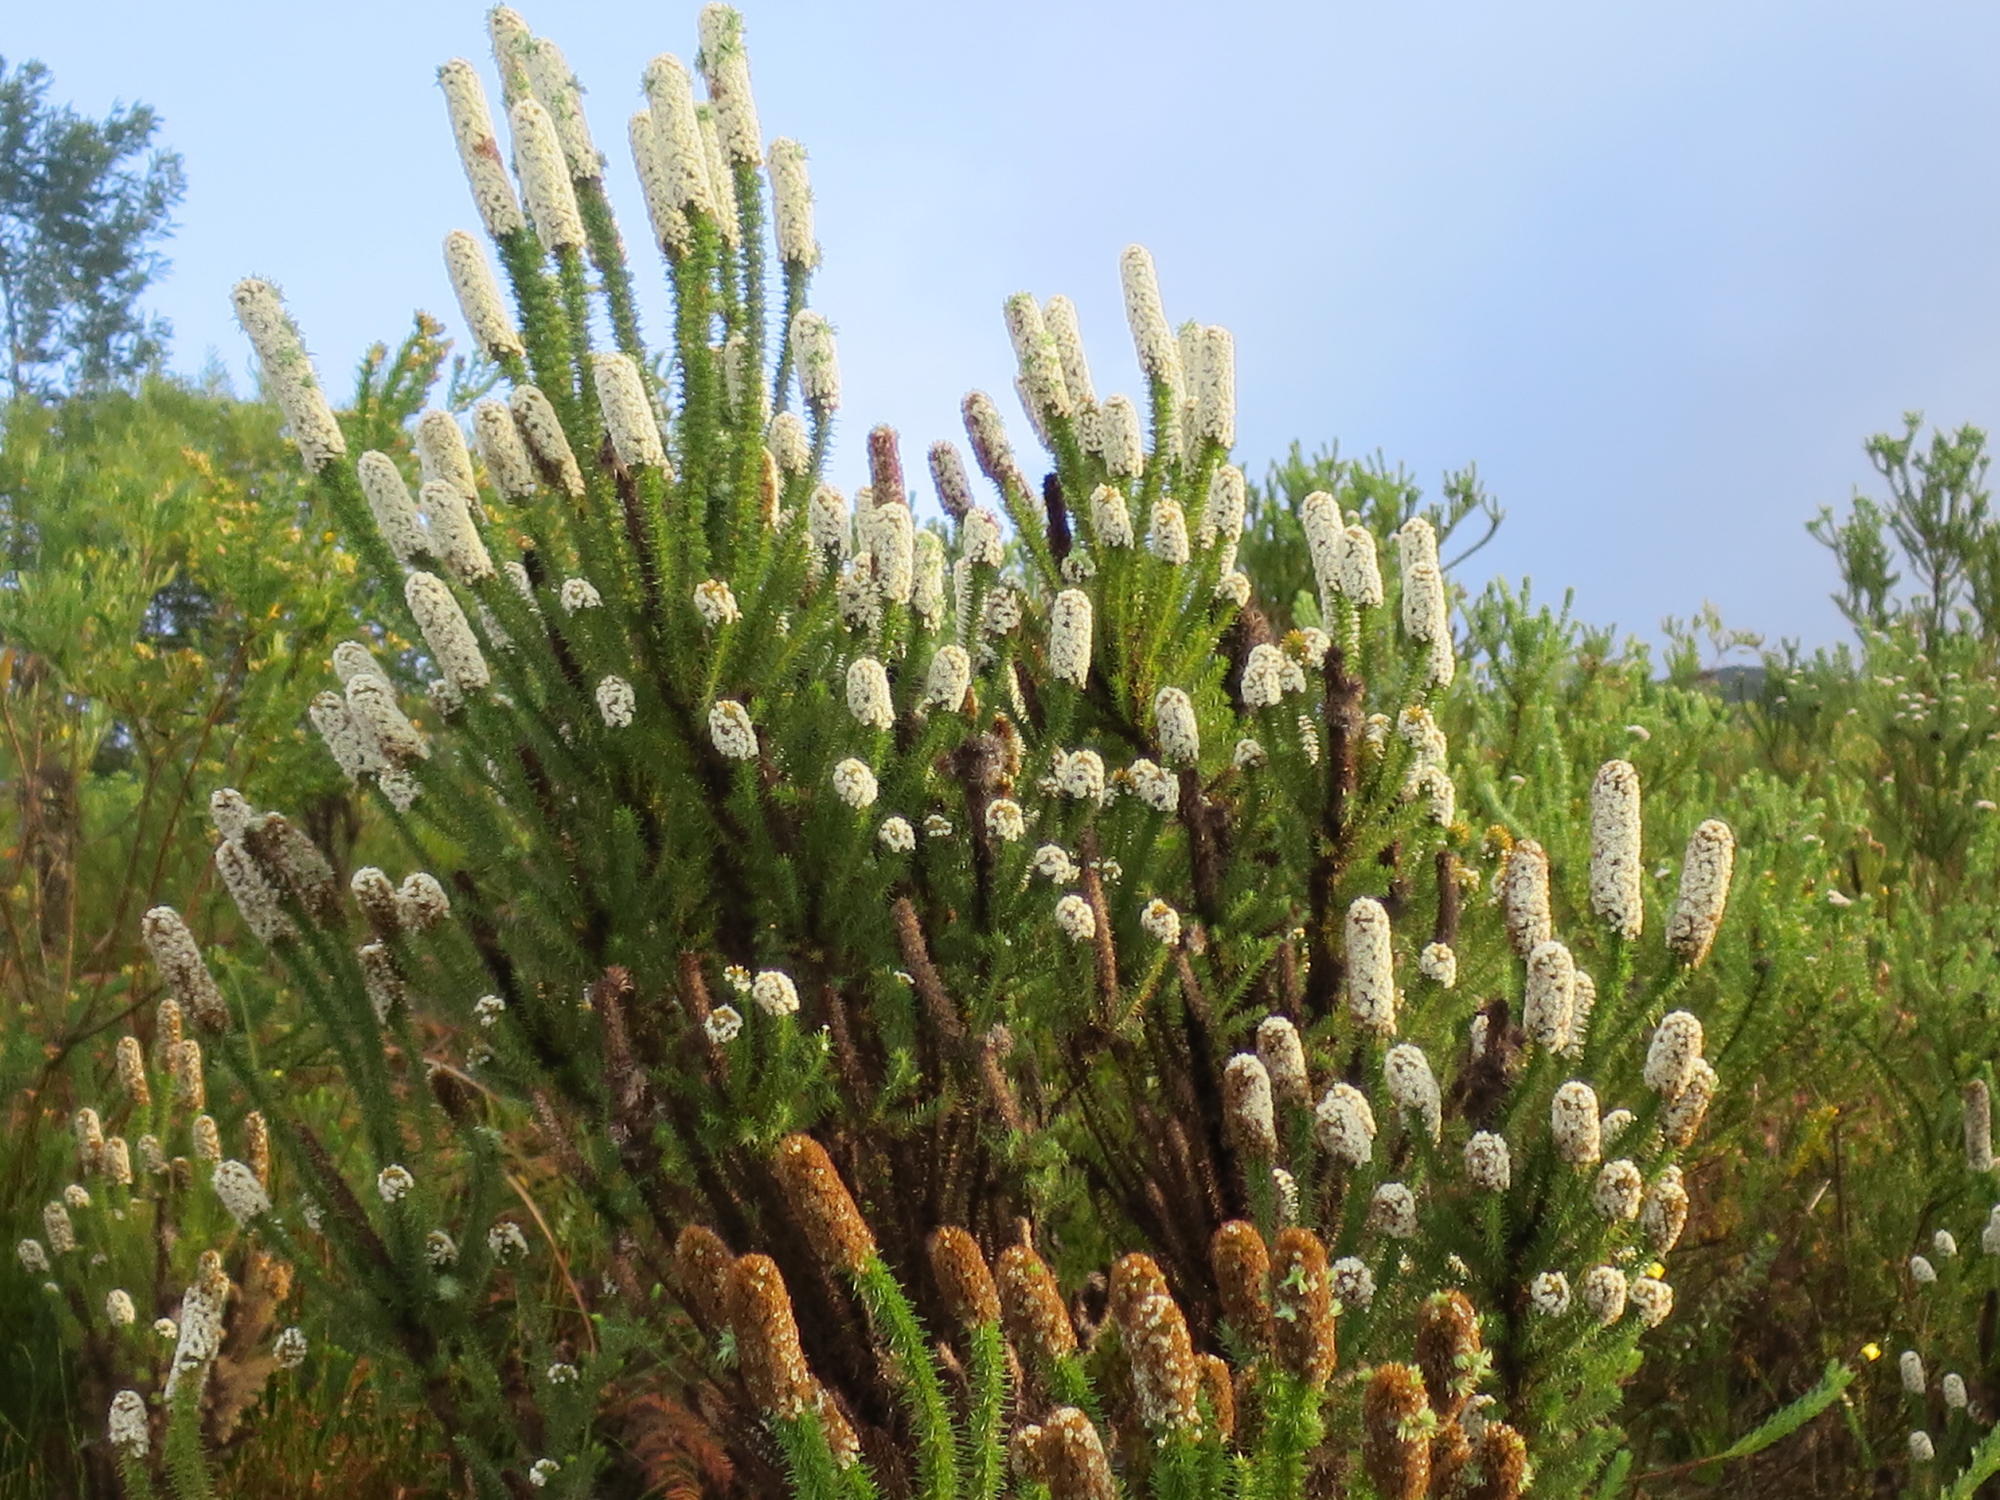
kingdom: Plantae
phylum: Tracheophyta
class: Magnoliopsida
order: Asterales
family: Asteraceae
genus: Stoebe
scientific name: Stoebe alopecuroides
